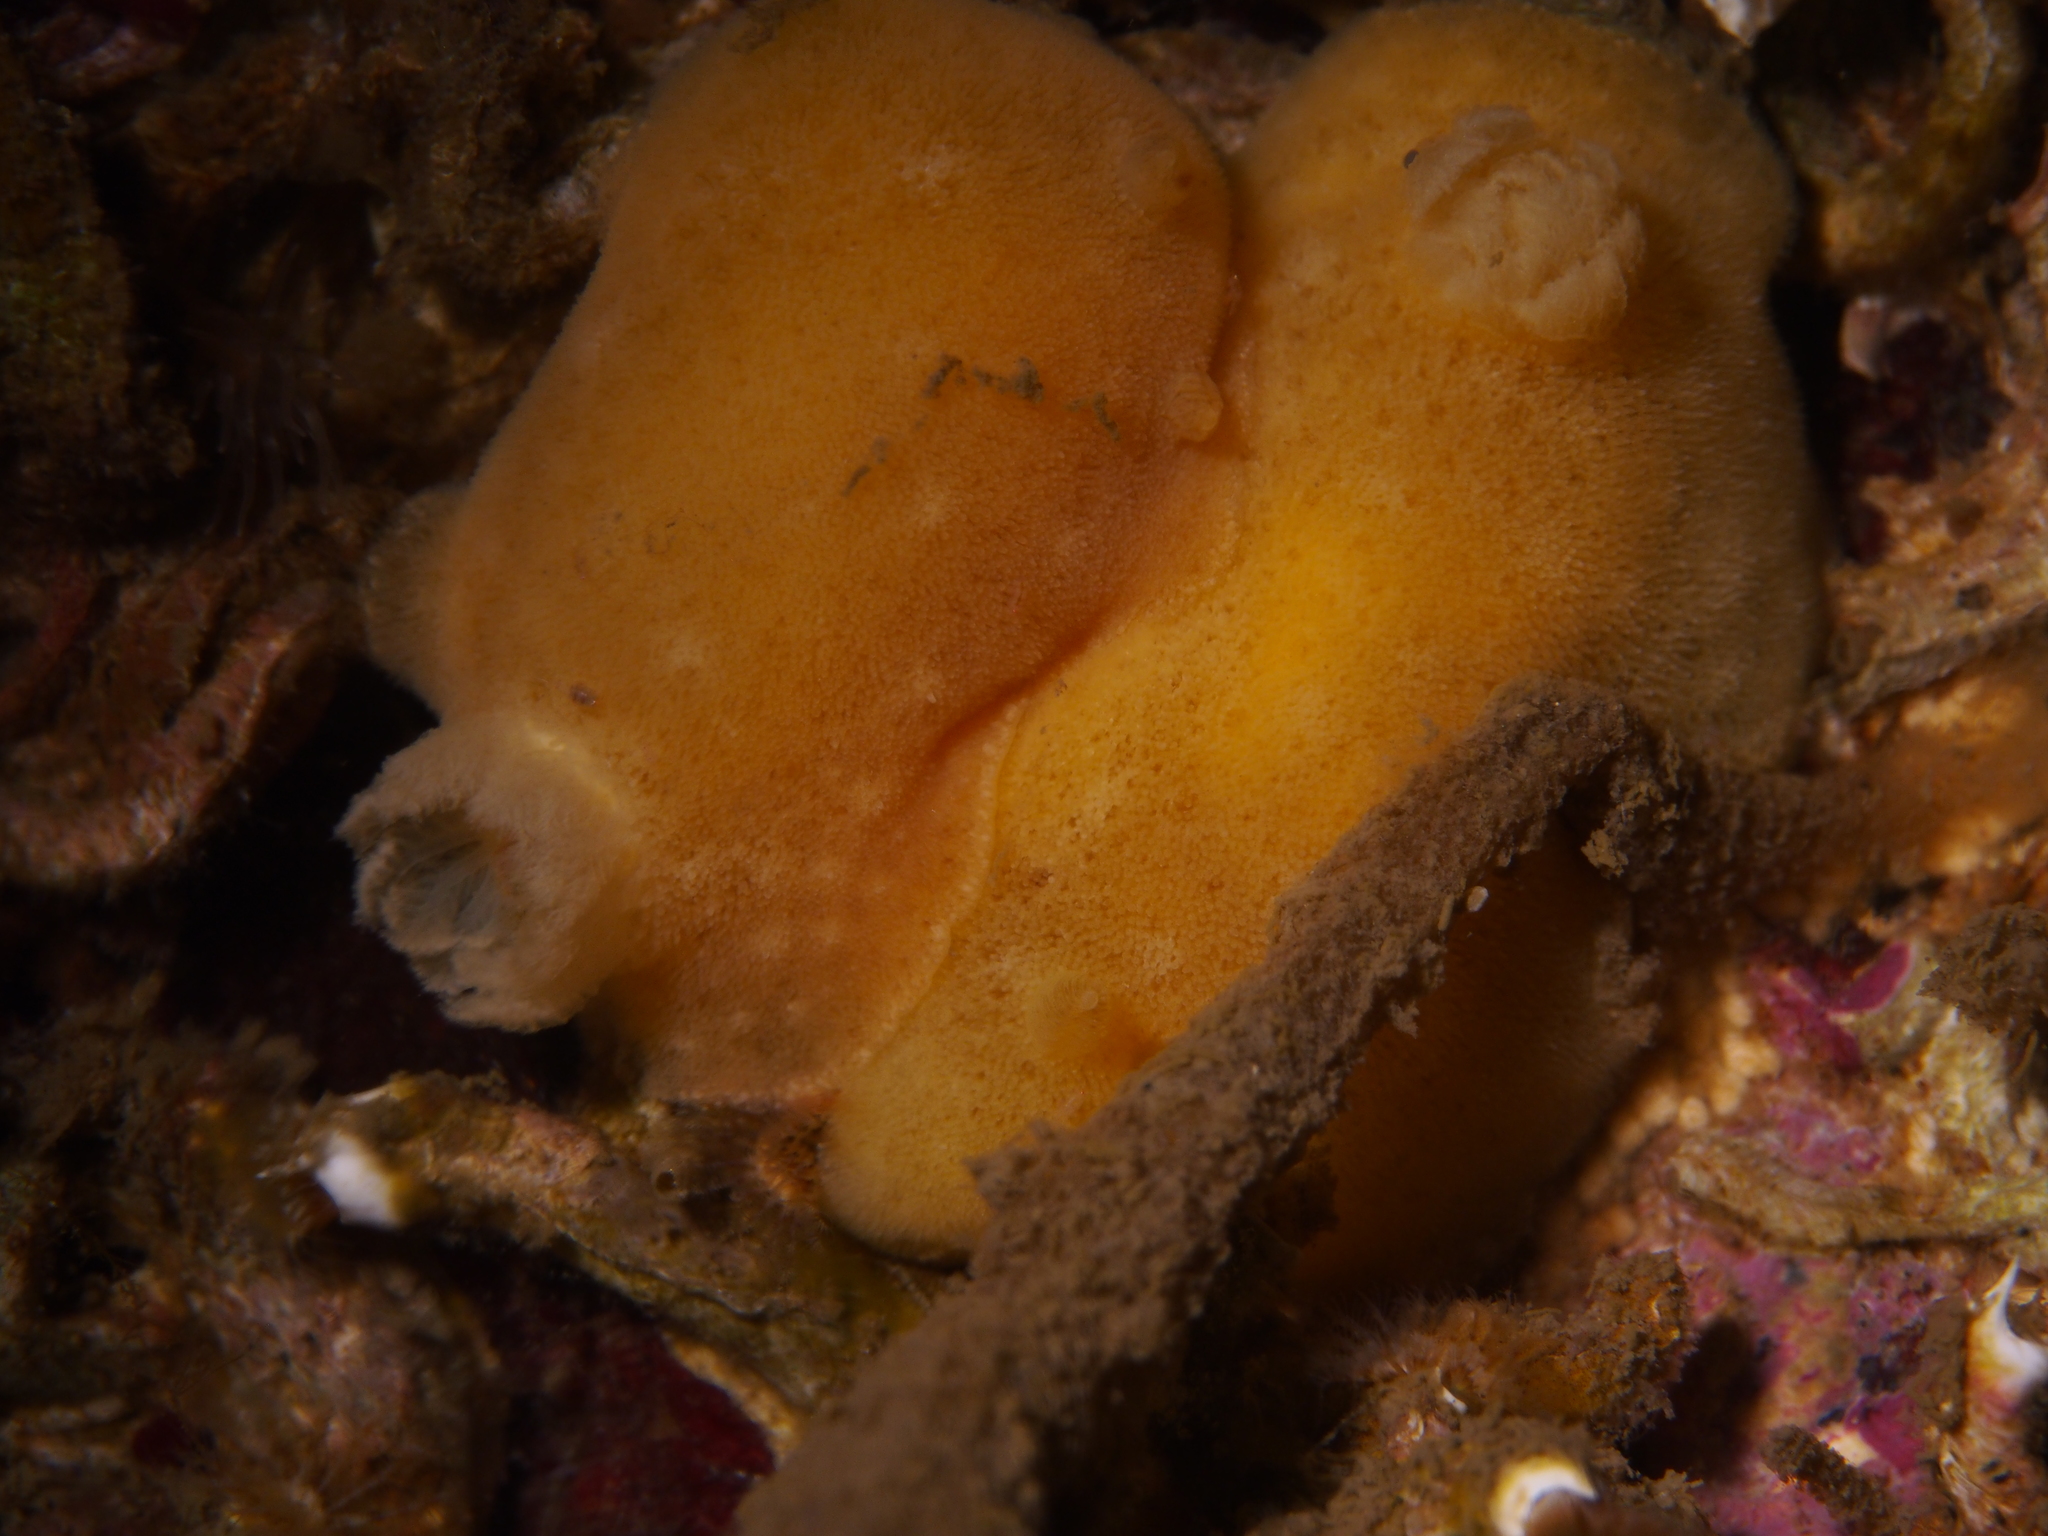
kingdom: Animalia
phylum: Mollusca
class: Gastropoda
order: Nudibranchia
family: Discodorididae
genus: Jorunna
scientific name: Jorunna tomentosa
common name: Grey sea slug
